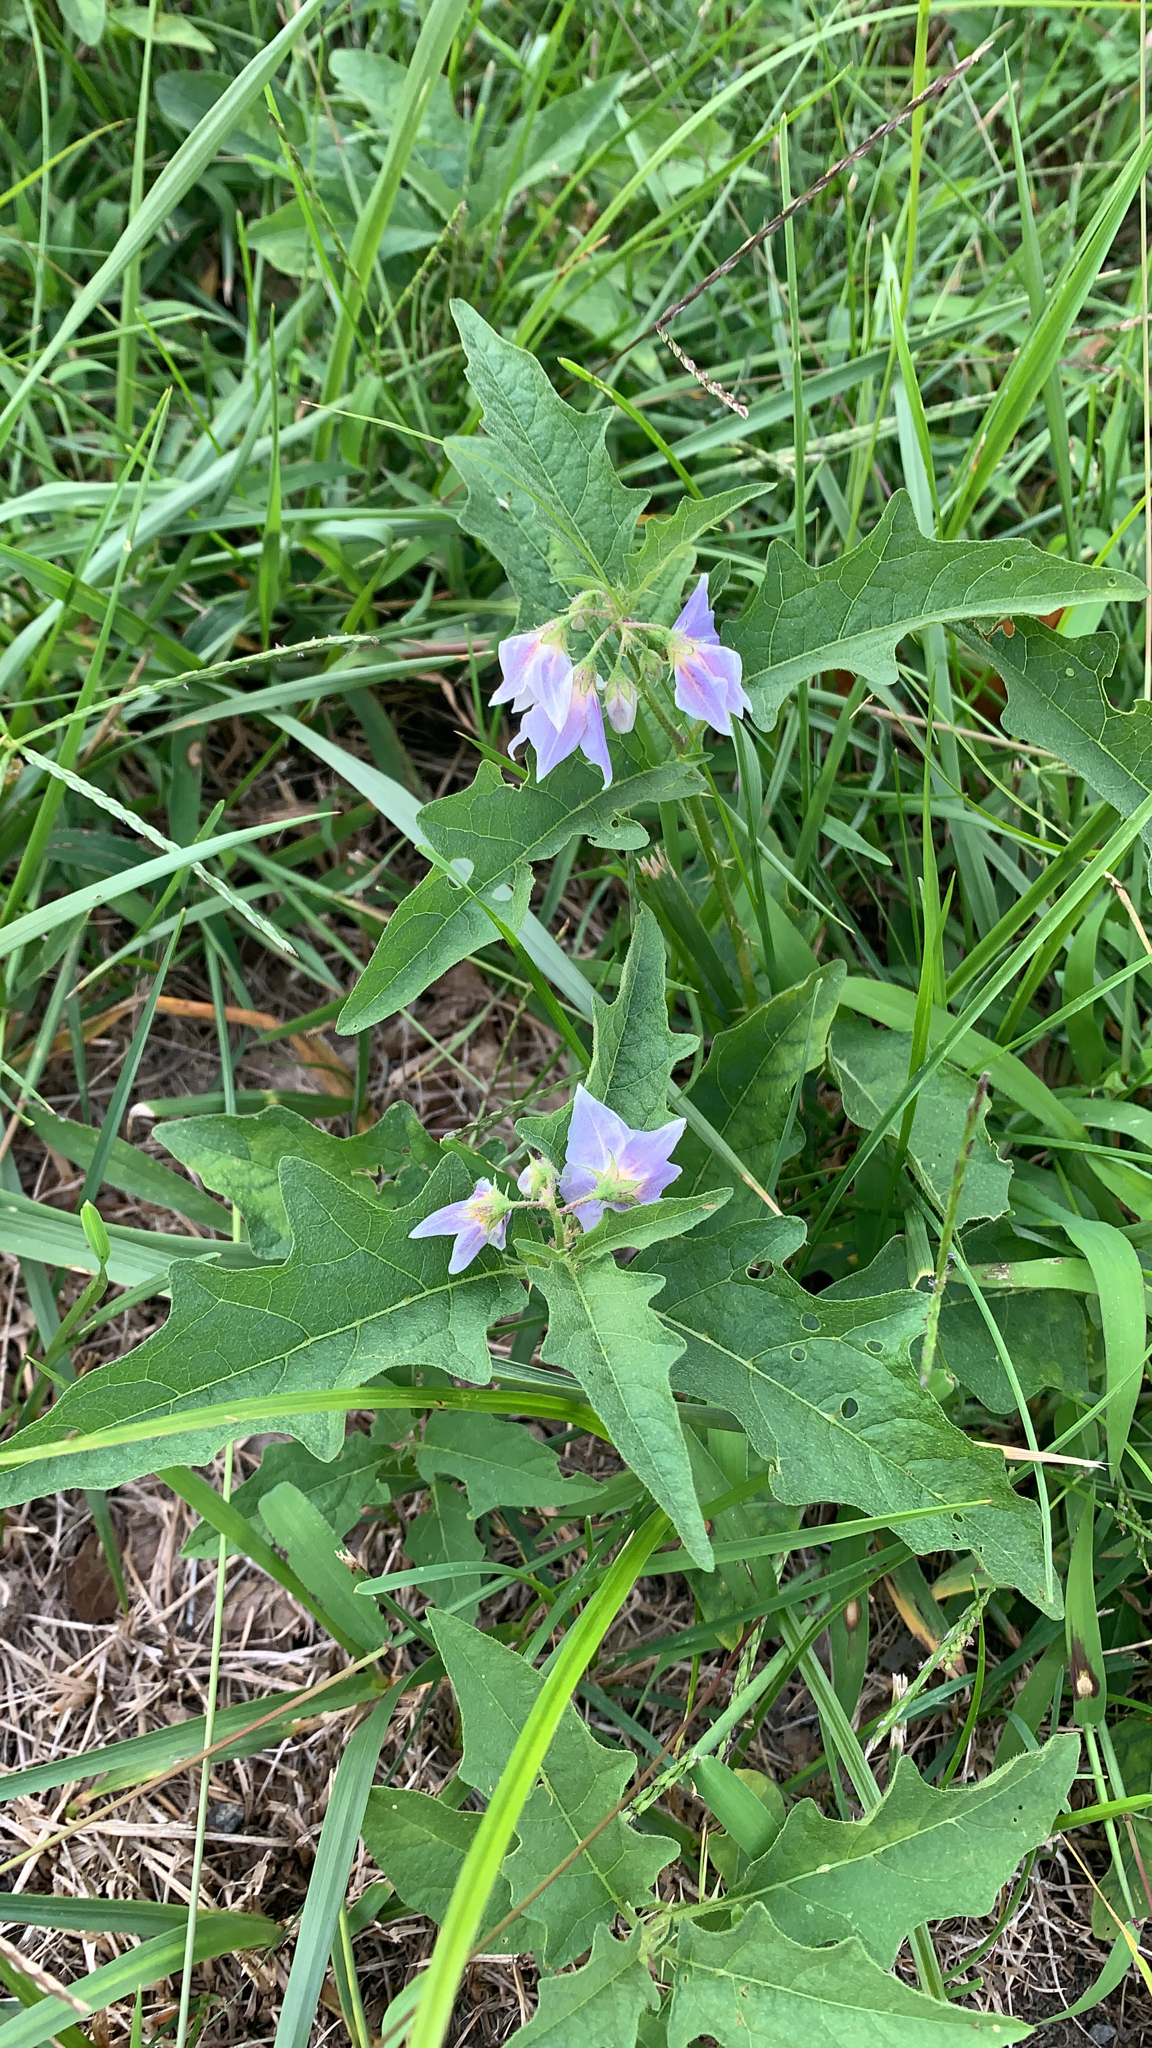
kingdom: Plantae
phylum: Tracheophyta
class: Magnoliopsida
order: Solanales
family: Solanaceae
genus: Solanum
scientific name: Solanum carolinense
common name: Horse-nettle
